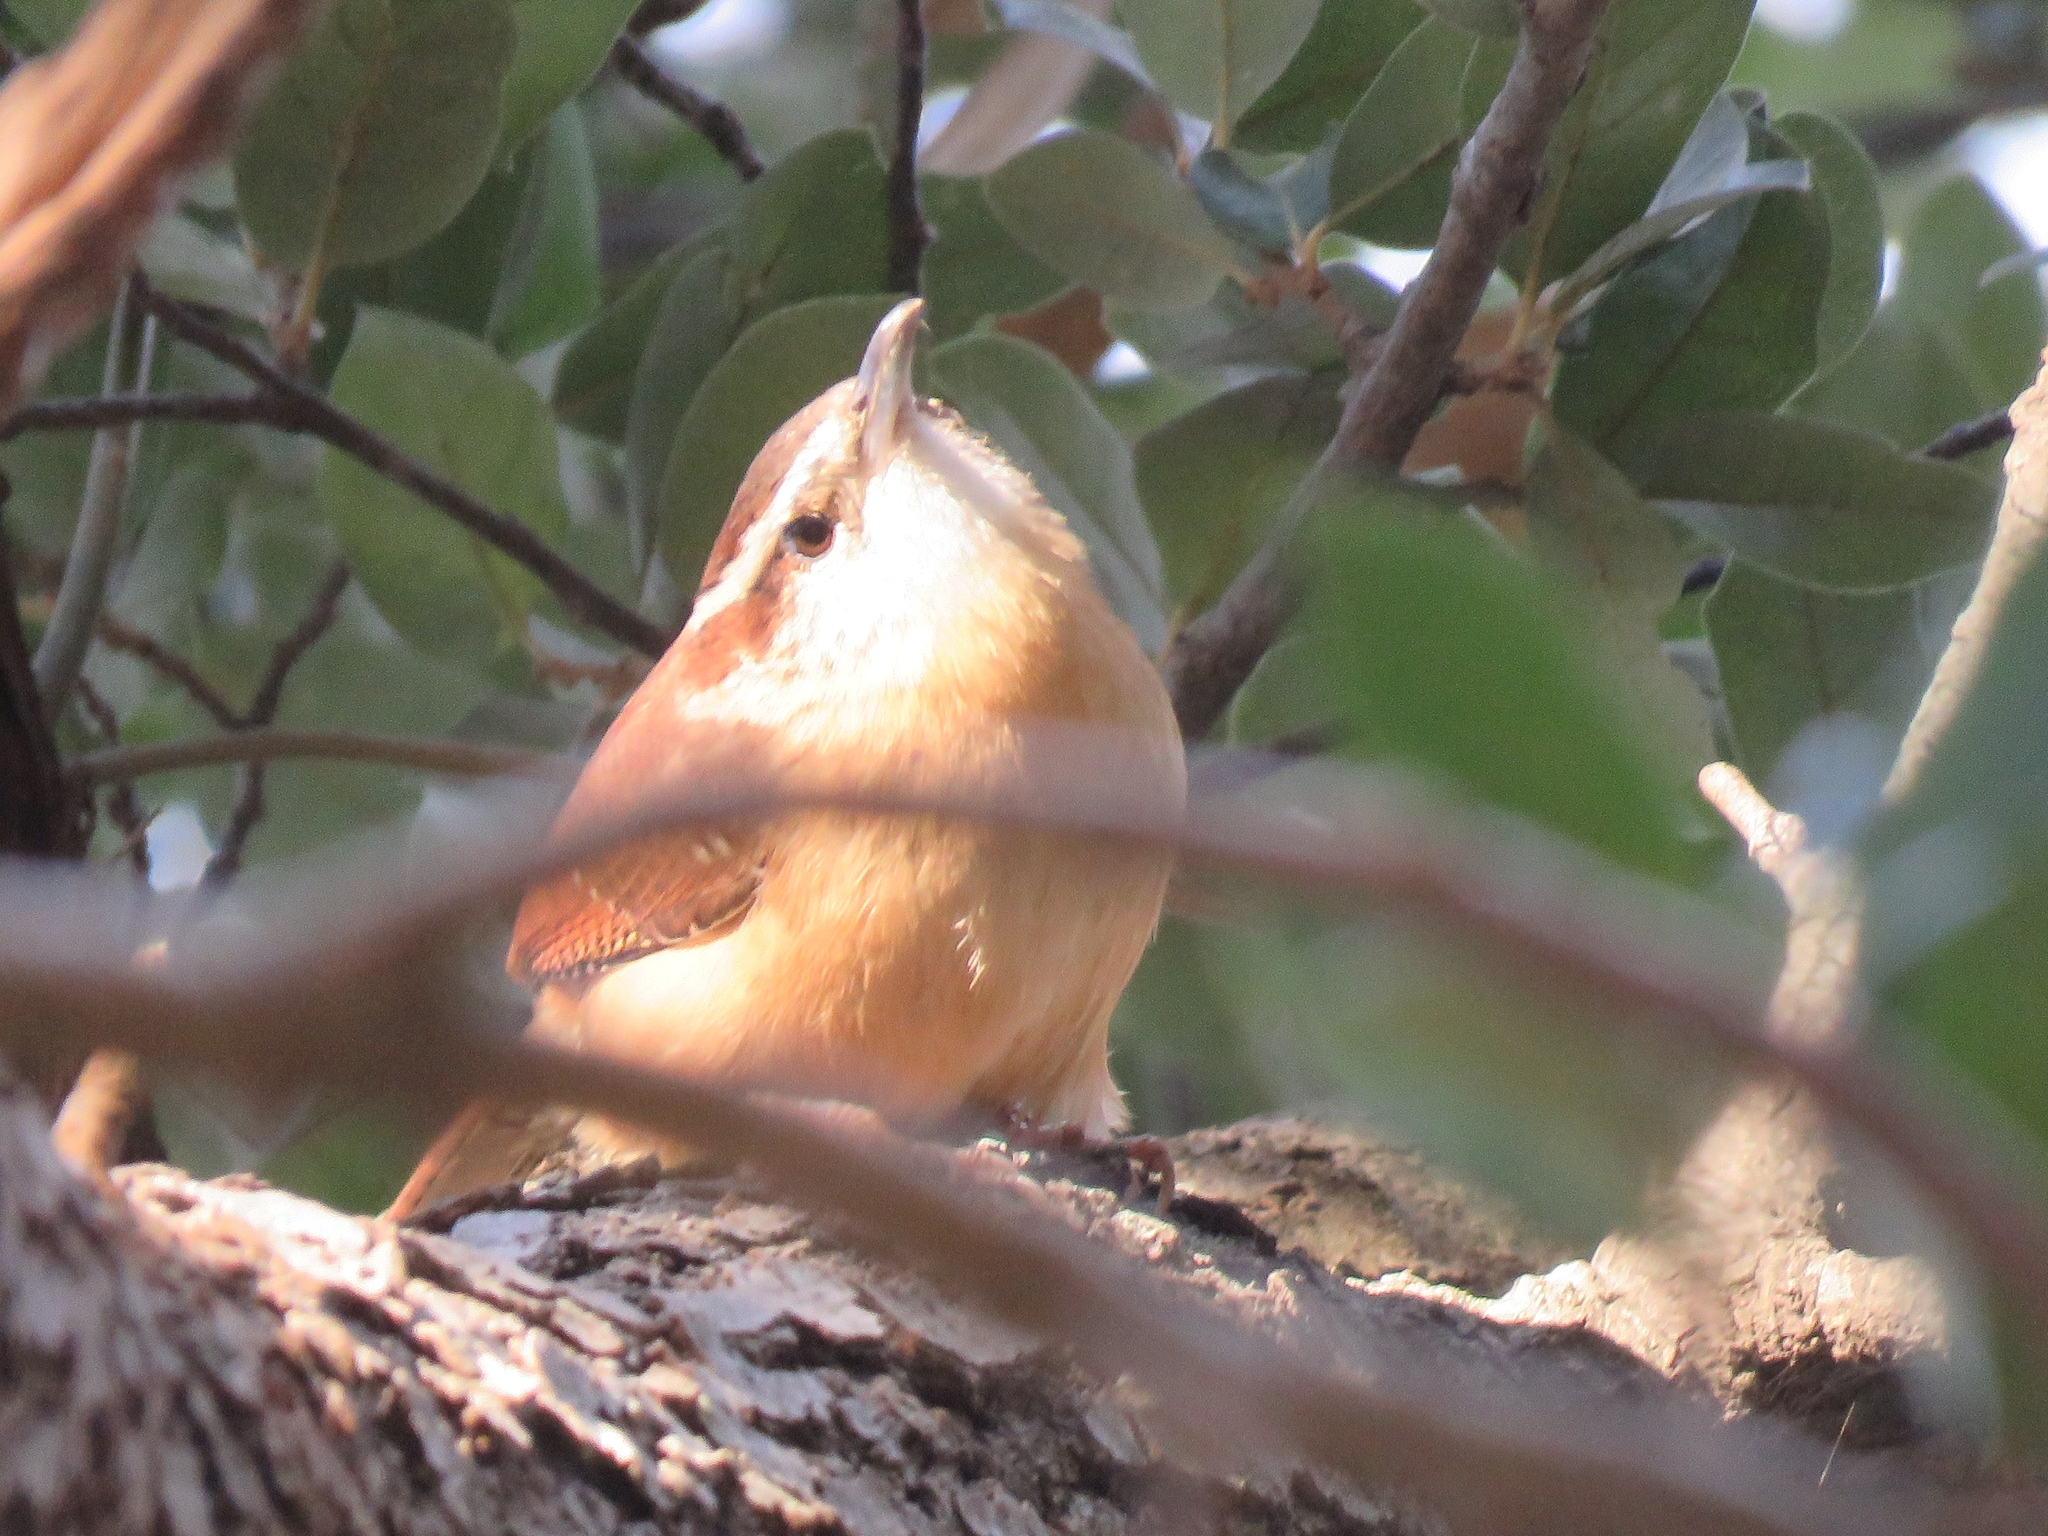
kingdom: Animalia
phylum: Chordata
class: Aves
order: Passeriformes
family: Troglodytidae
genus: Thryothorus
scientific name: Thryothorus ludovicianus
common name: Carolina wren
